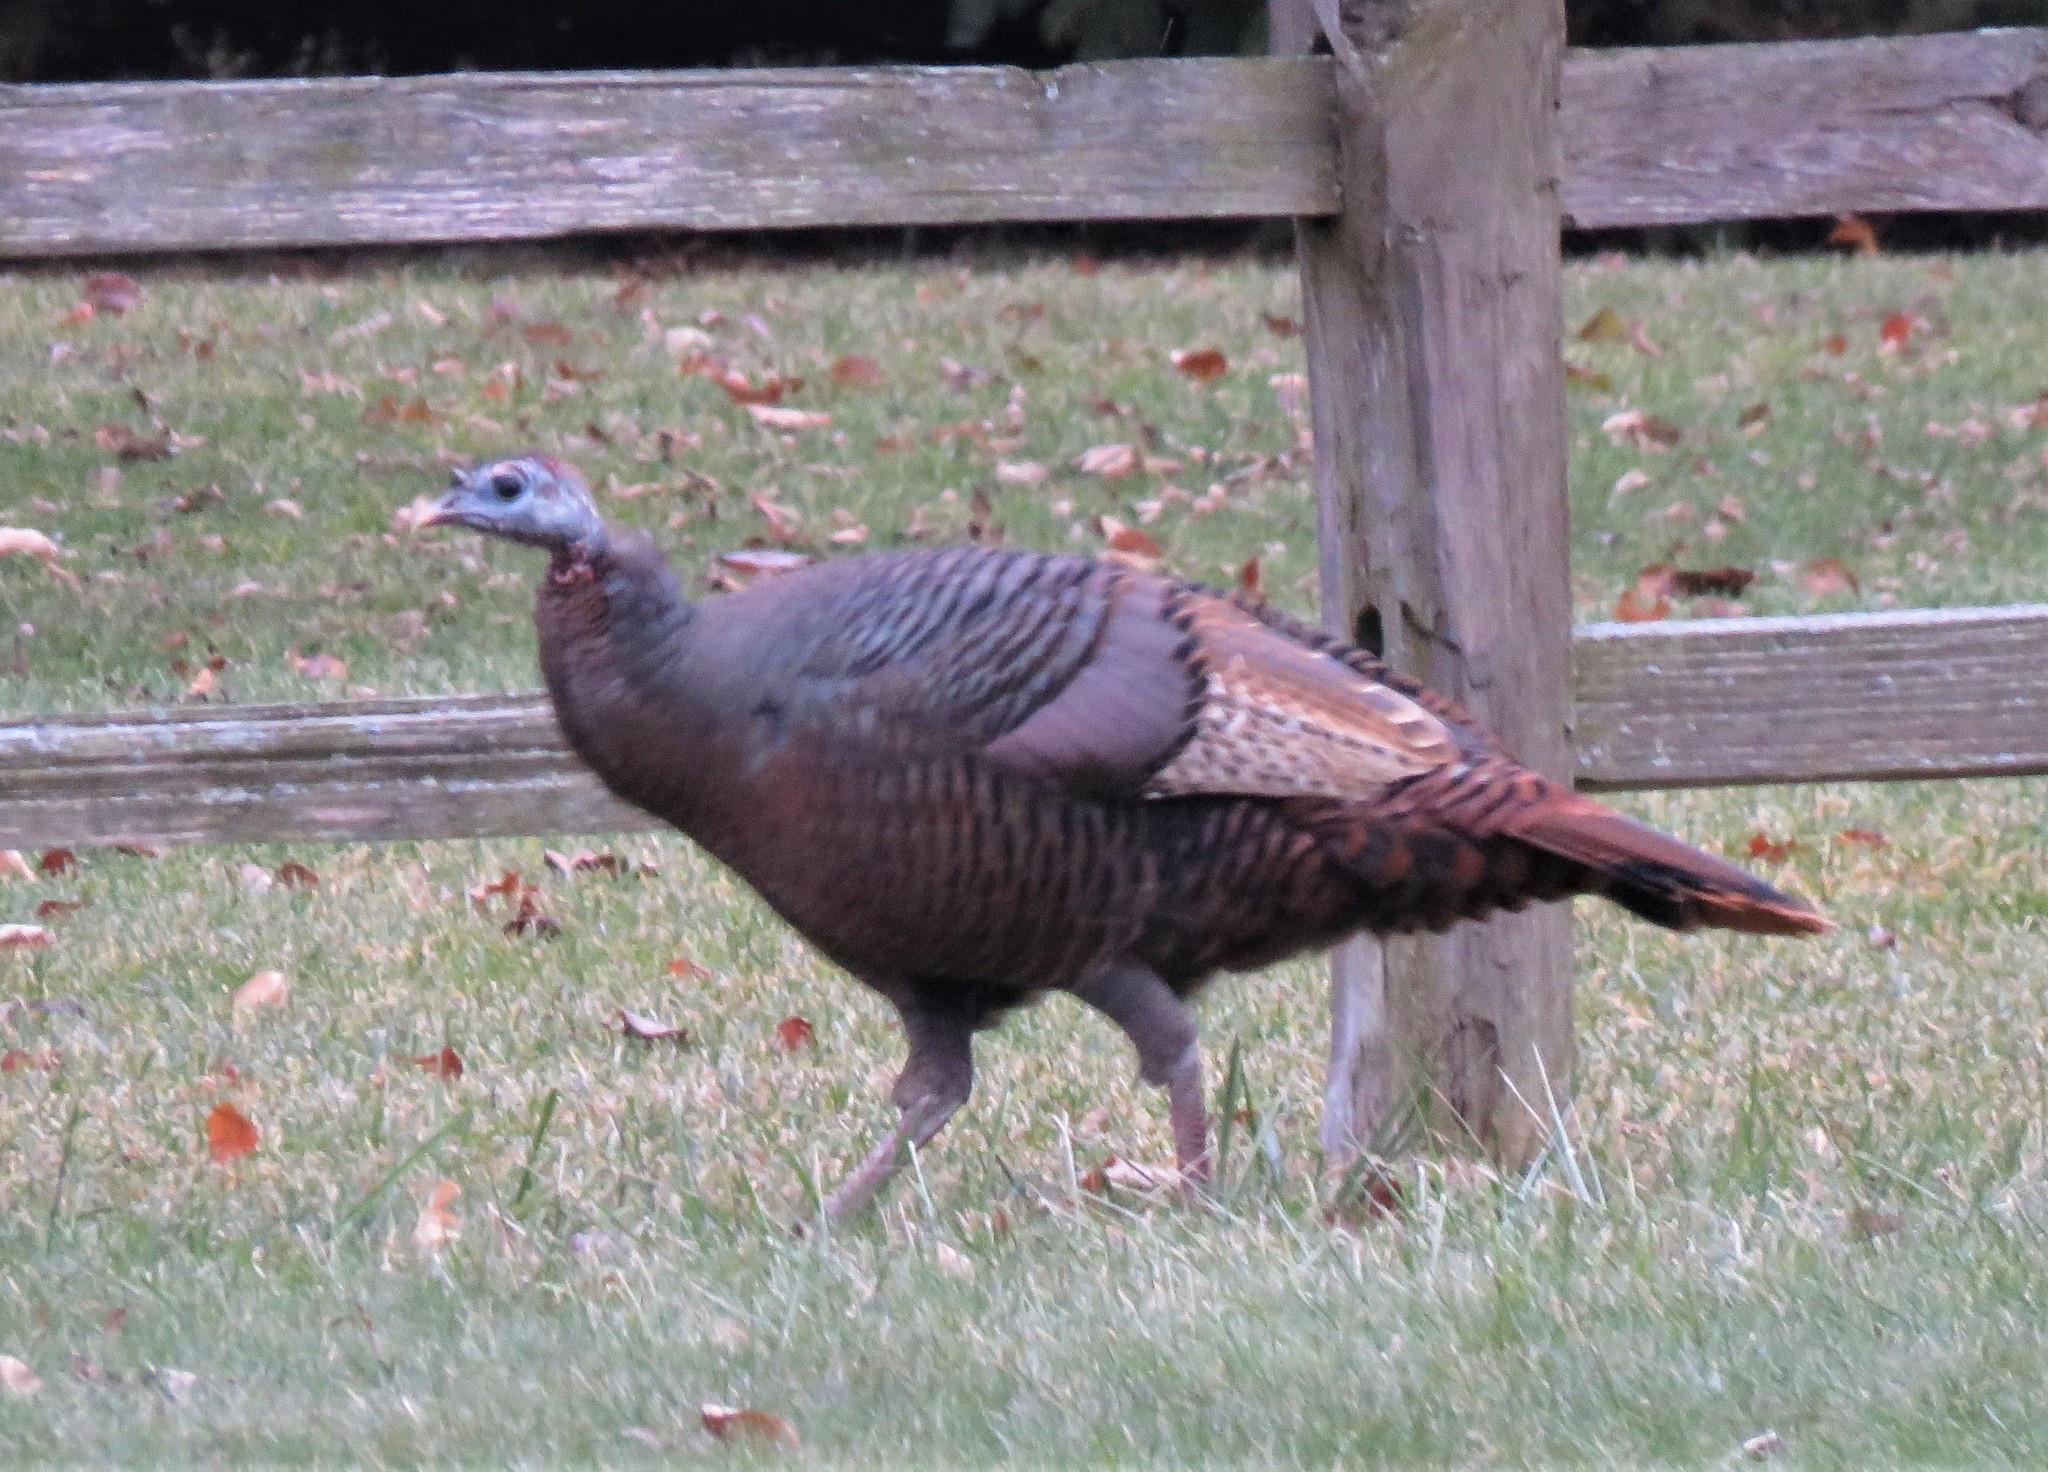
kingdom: Animalia
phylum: Chordata
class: Aves
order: Galliformes
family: Phasianidae
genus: Meleagris
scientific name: Meleagris gallopavo
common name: Wild turkey
